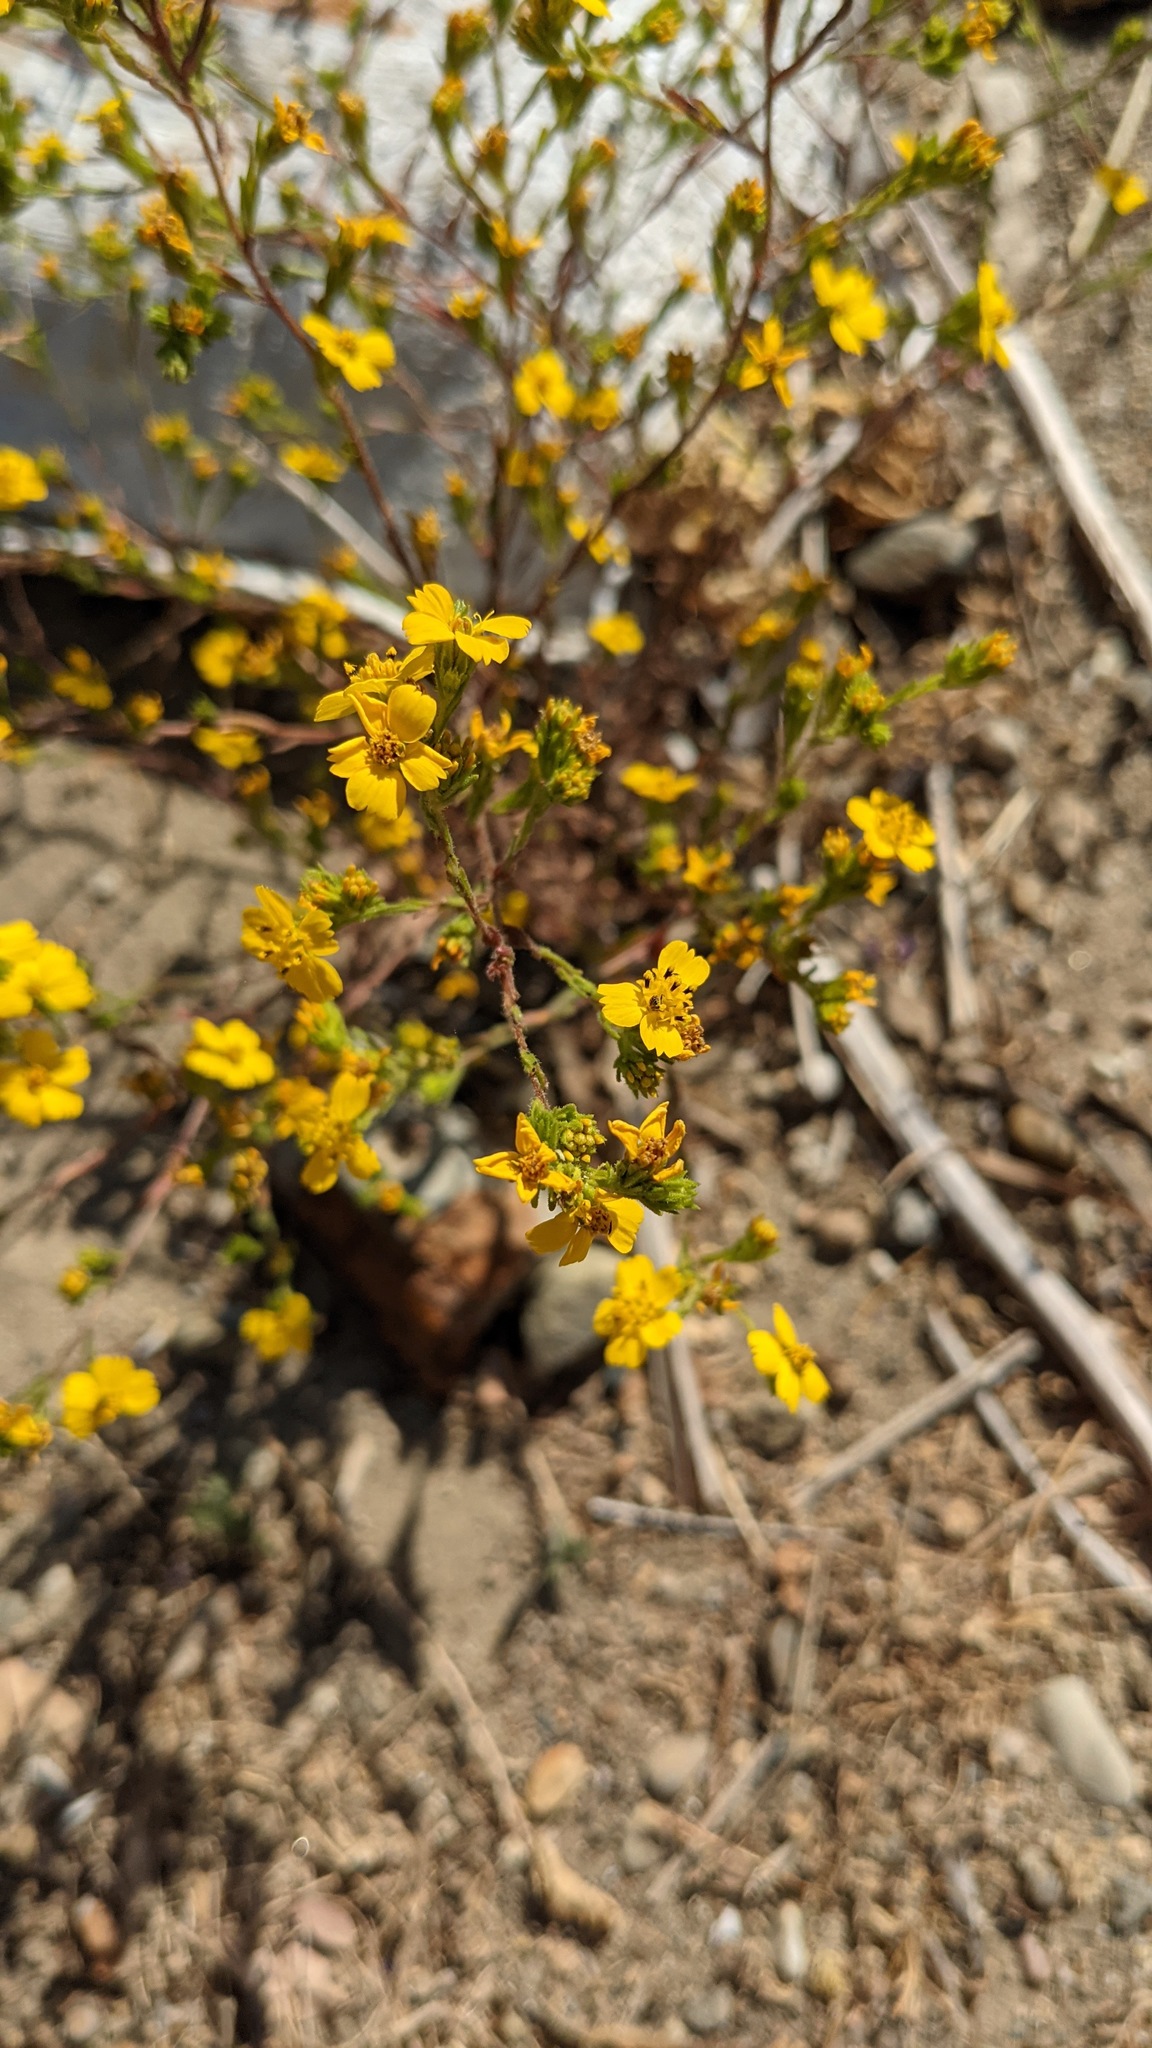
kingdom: Plantae
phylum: Tracheophyta
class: Magnoliopsida
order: Asterales
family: Asteraceae
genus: Deinandra
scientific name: Deinandra fasciculata
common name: Clustered tarweed
